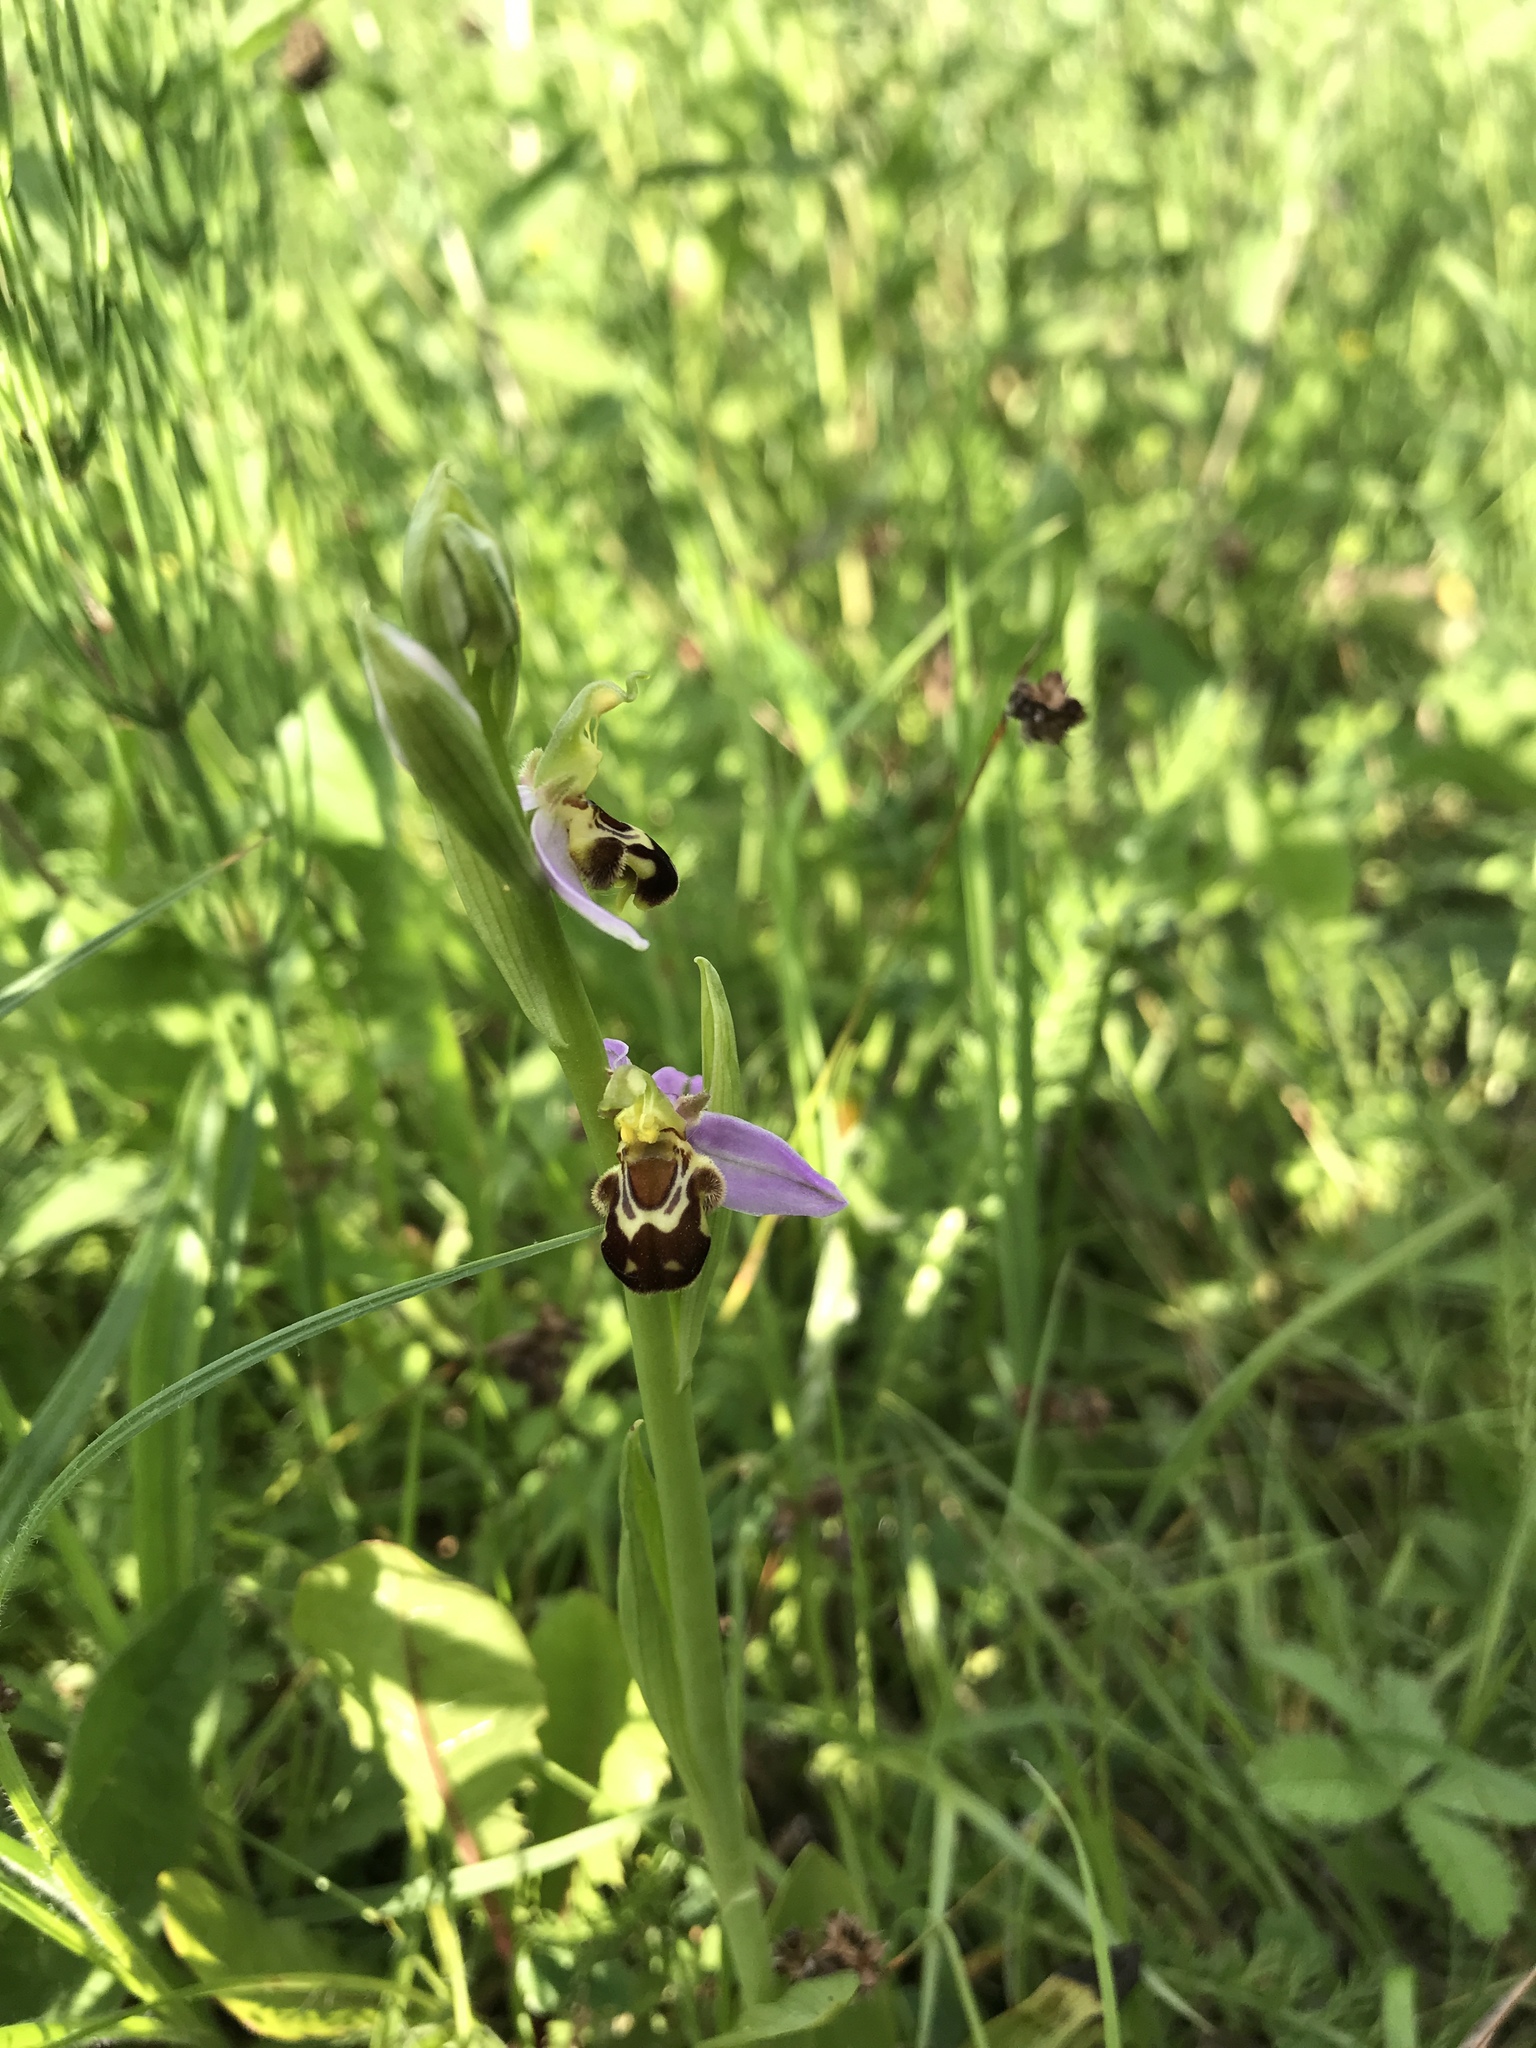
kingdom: Plantae
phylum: Tracheophyta
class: Liliopsida
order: Asparagales
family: Orchidaceae
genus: Ophrys
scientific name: Ophrys apifera
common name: Bee orchid
